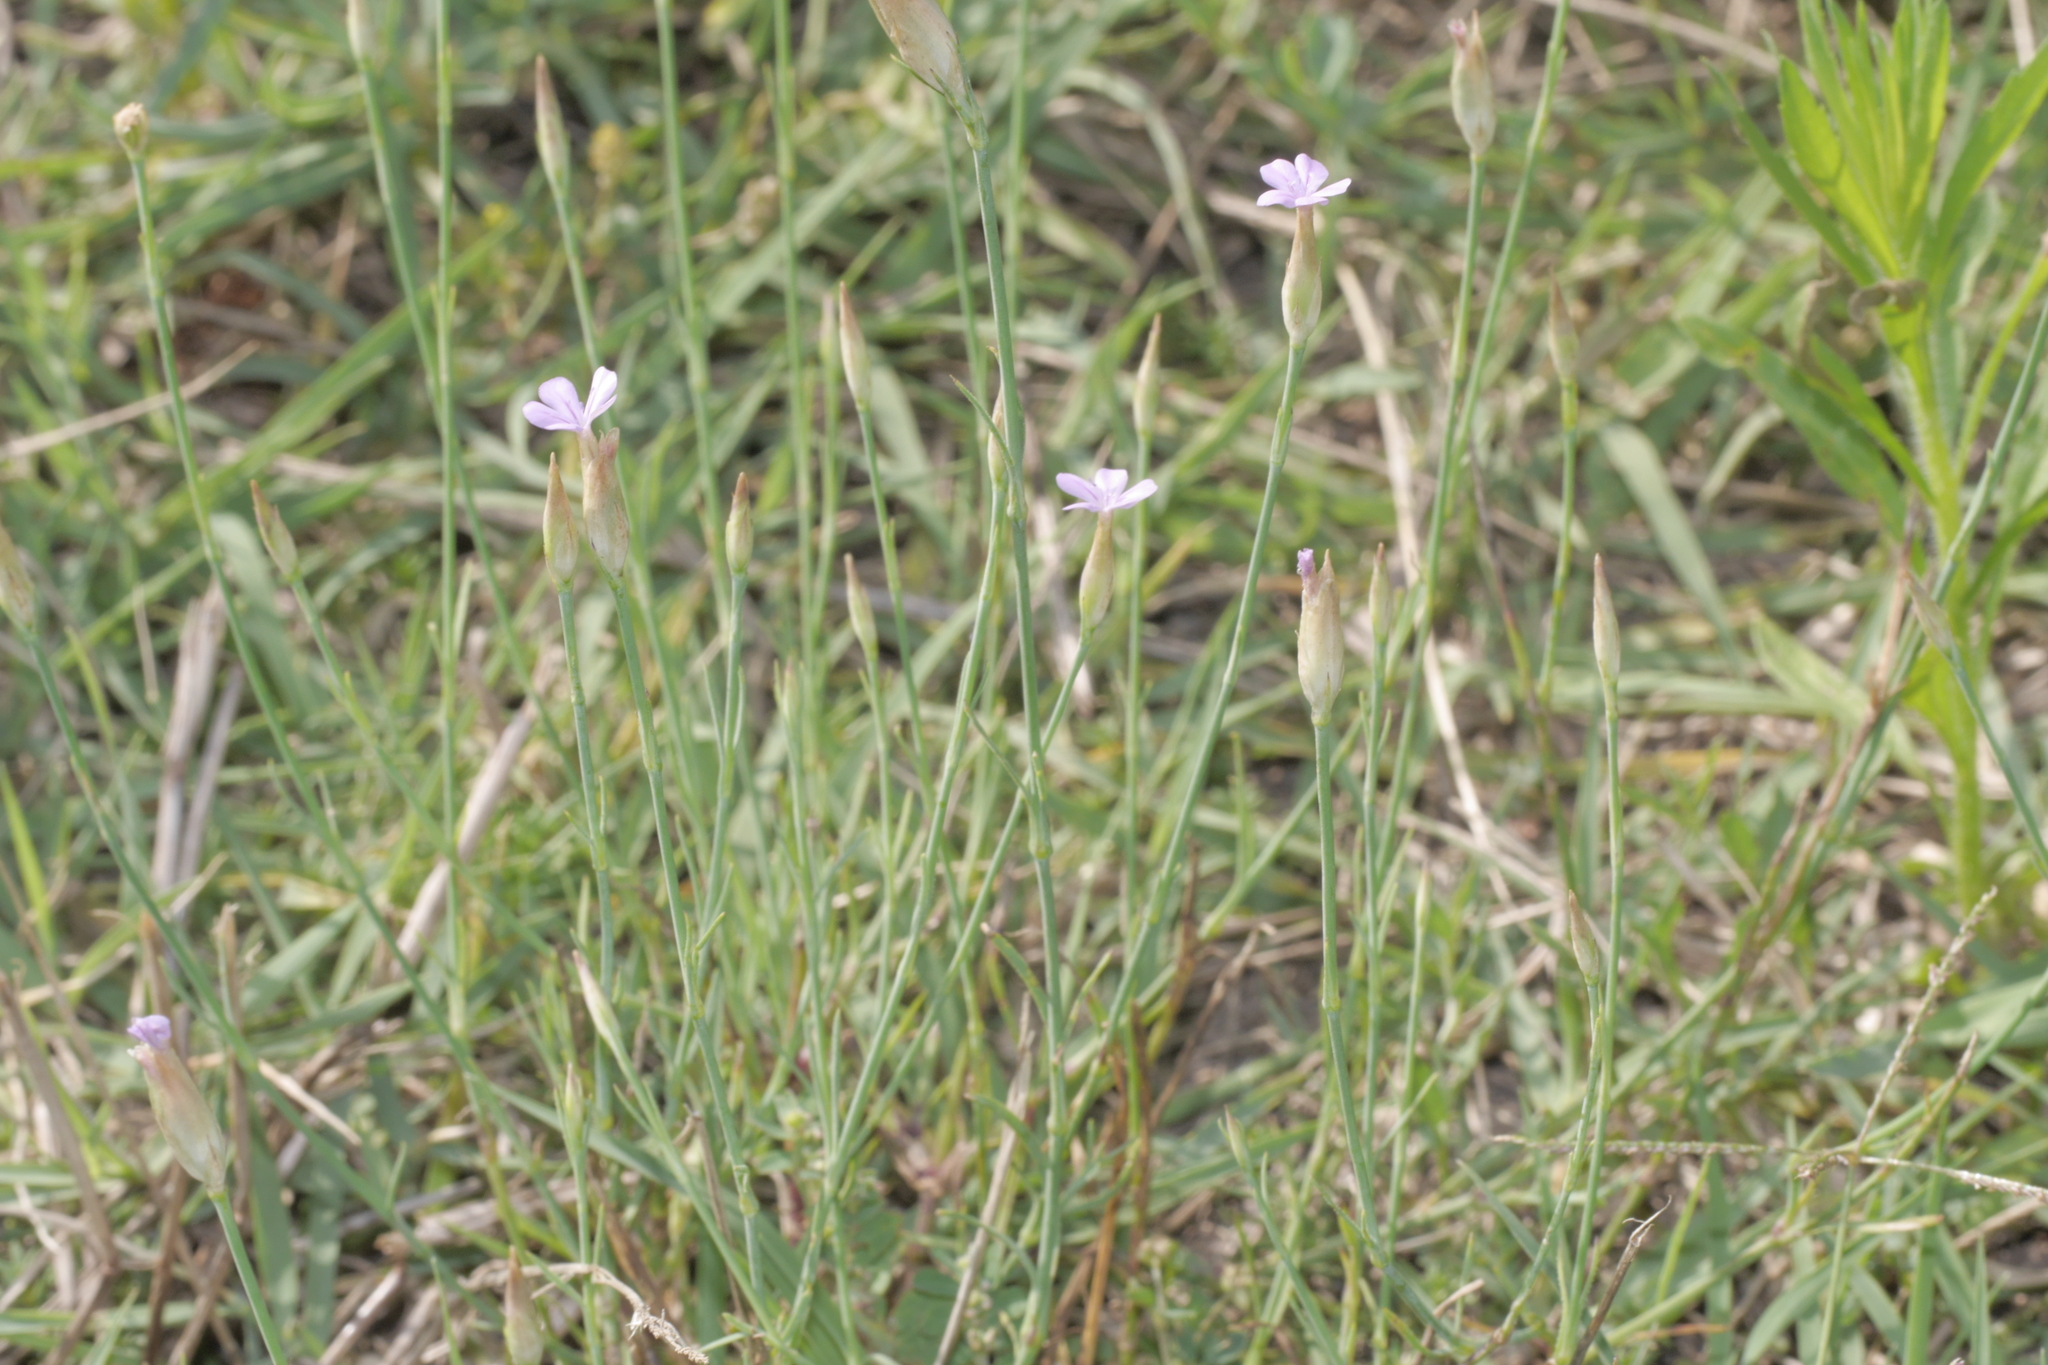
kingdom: Plantae
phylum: Tracheophyta
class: Magnoliopsida
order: Caryophyllales
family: Caryophyllaceae
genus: Petrorhagia
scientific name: Petrorhagia prolifera
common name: Proliferous pink
